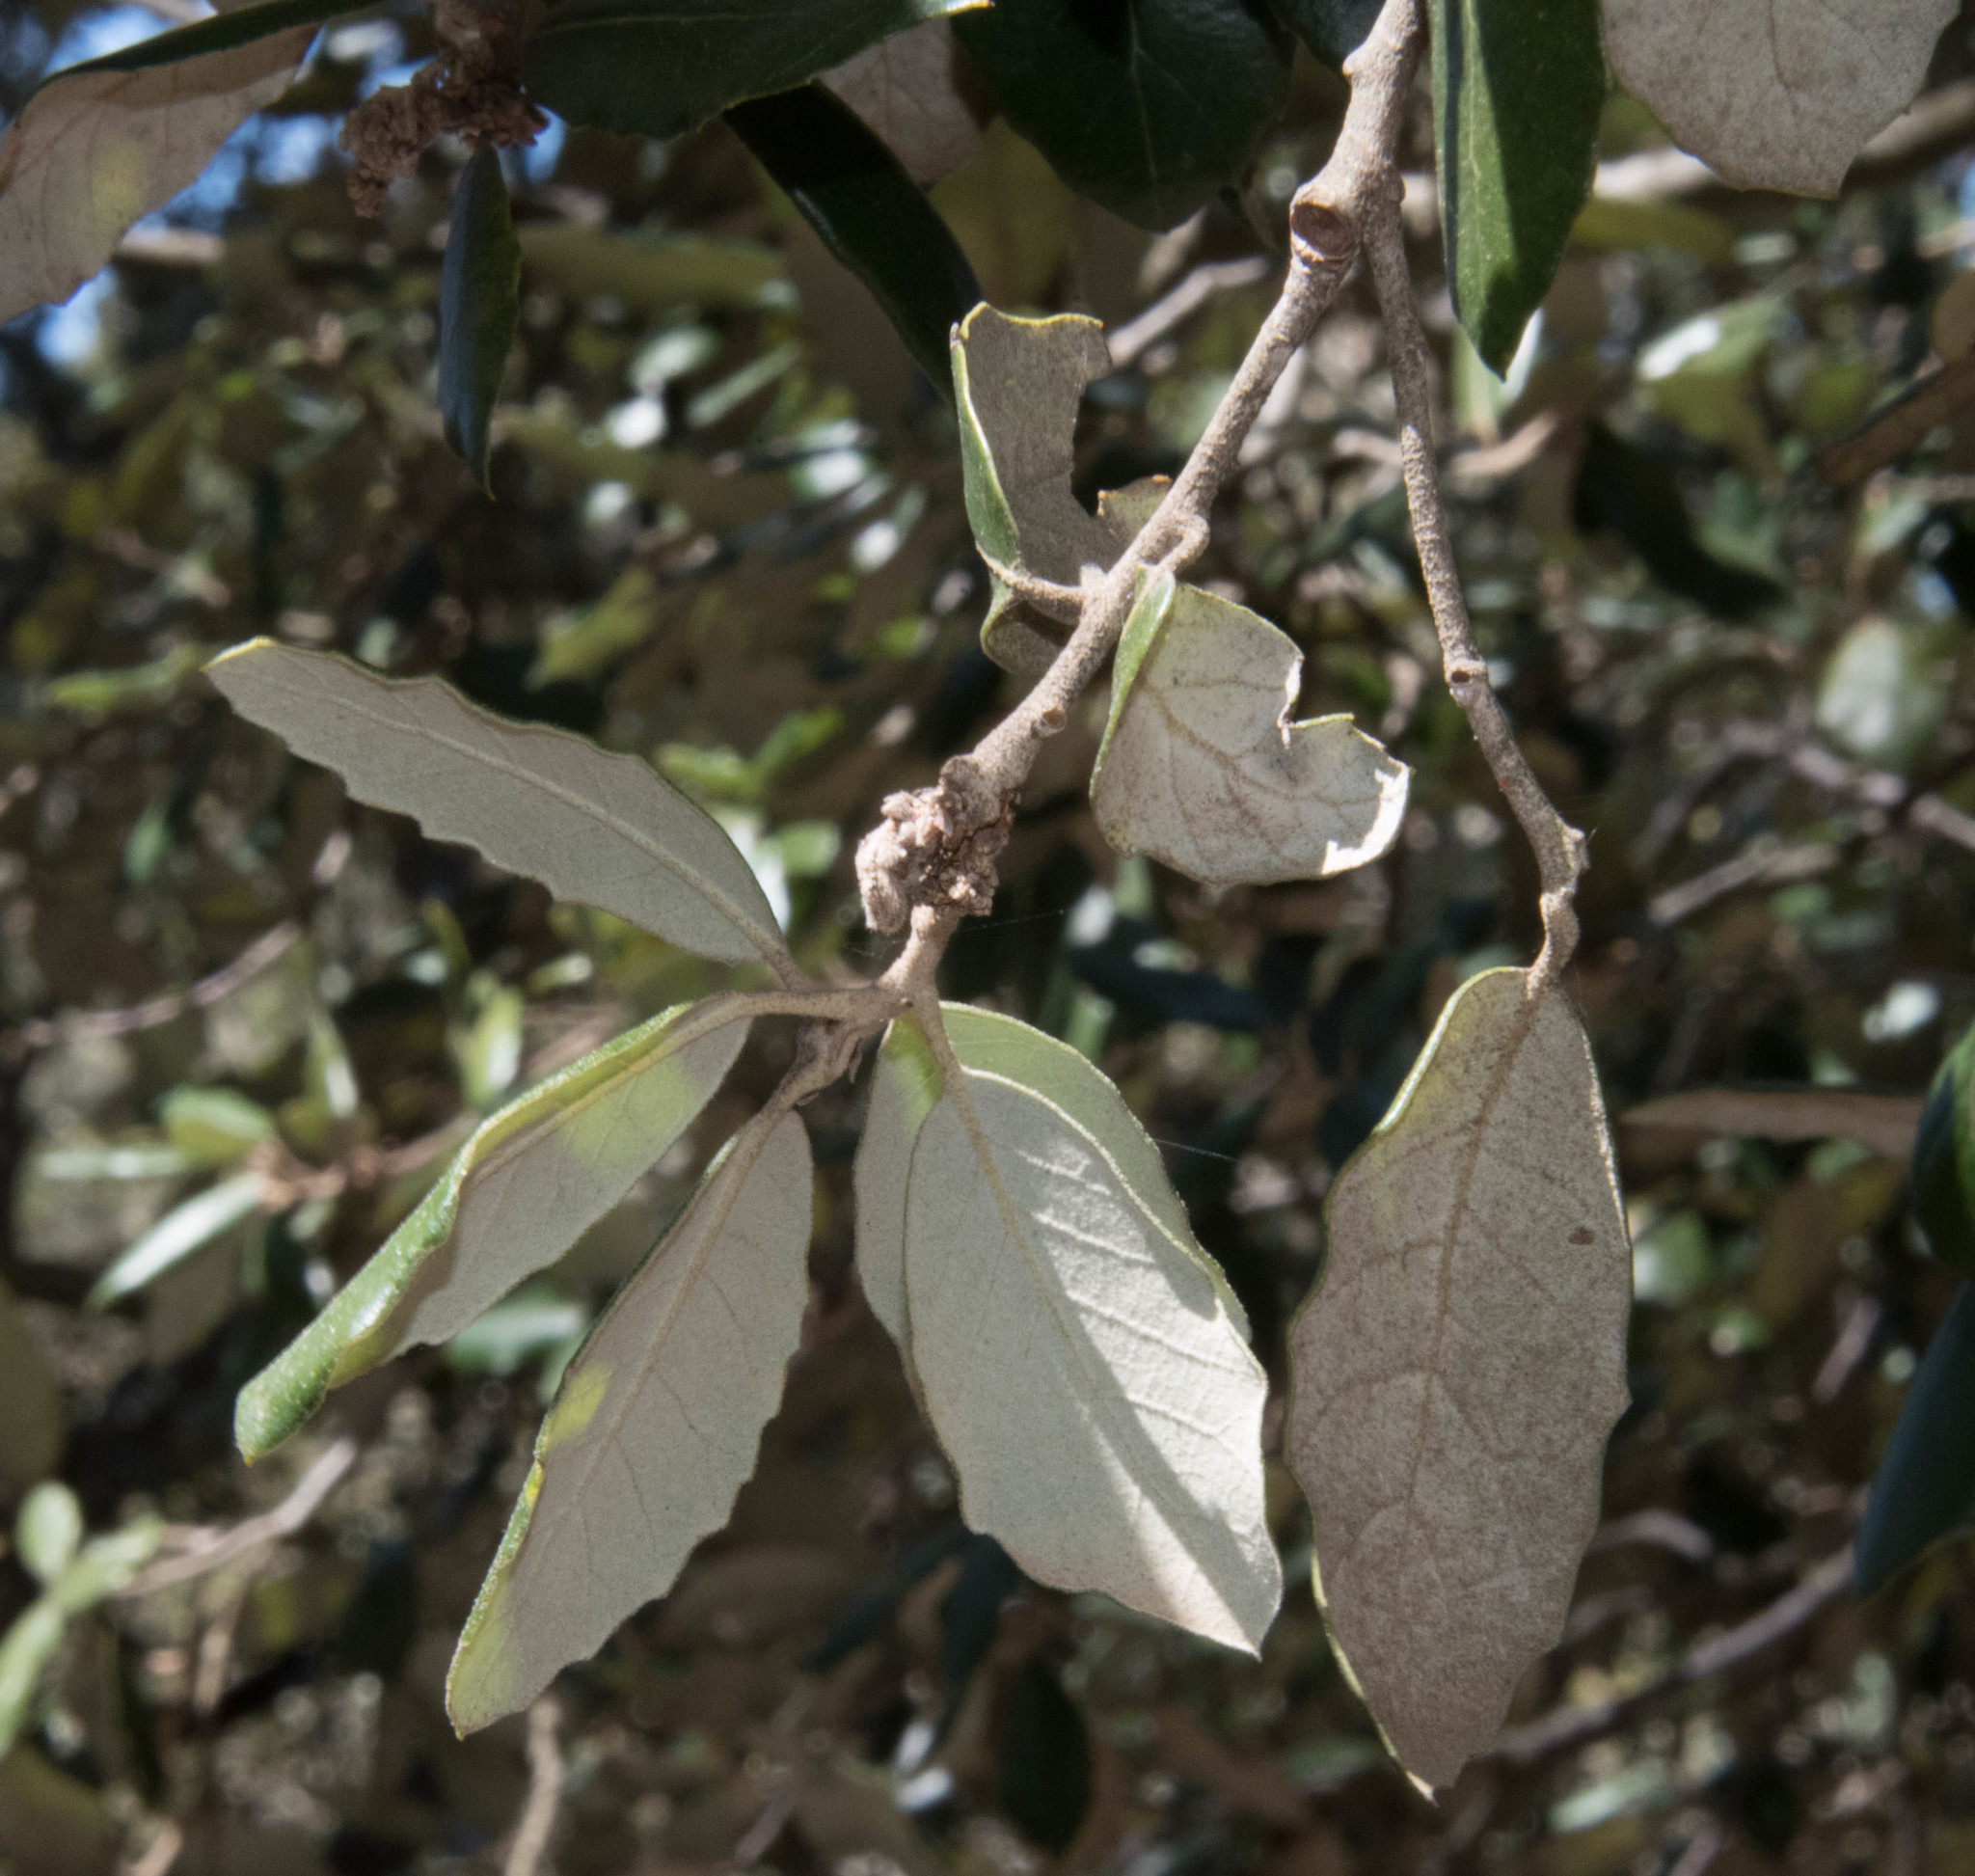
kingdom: Plantae
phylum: Tracheophyta
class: Magnoliopsida
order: Fagales
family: Fagaceae
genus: Quercus
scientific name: Quercus ilex
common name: Evergreen oak
